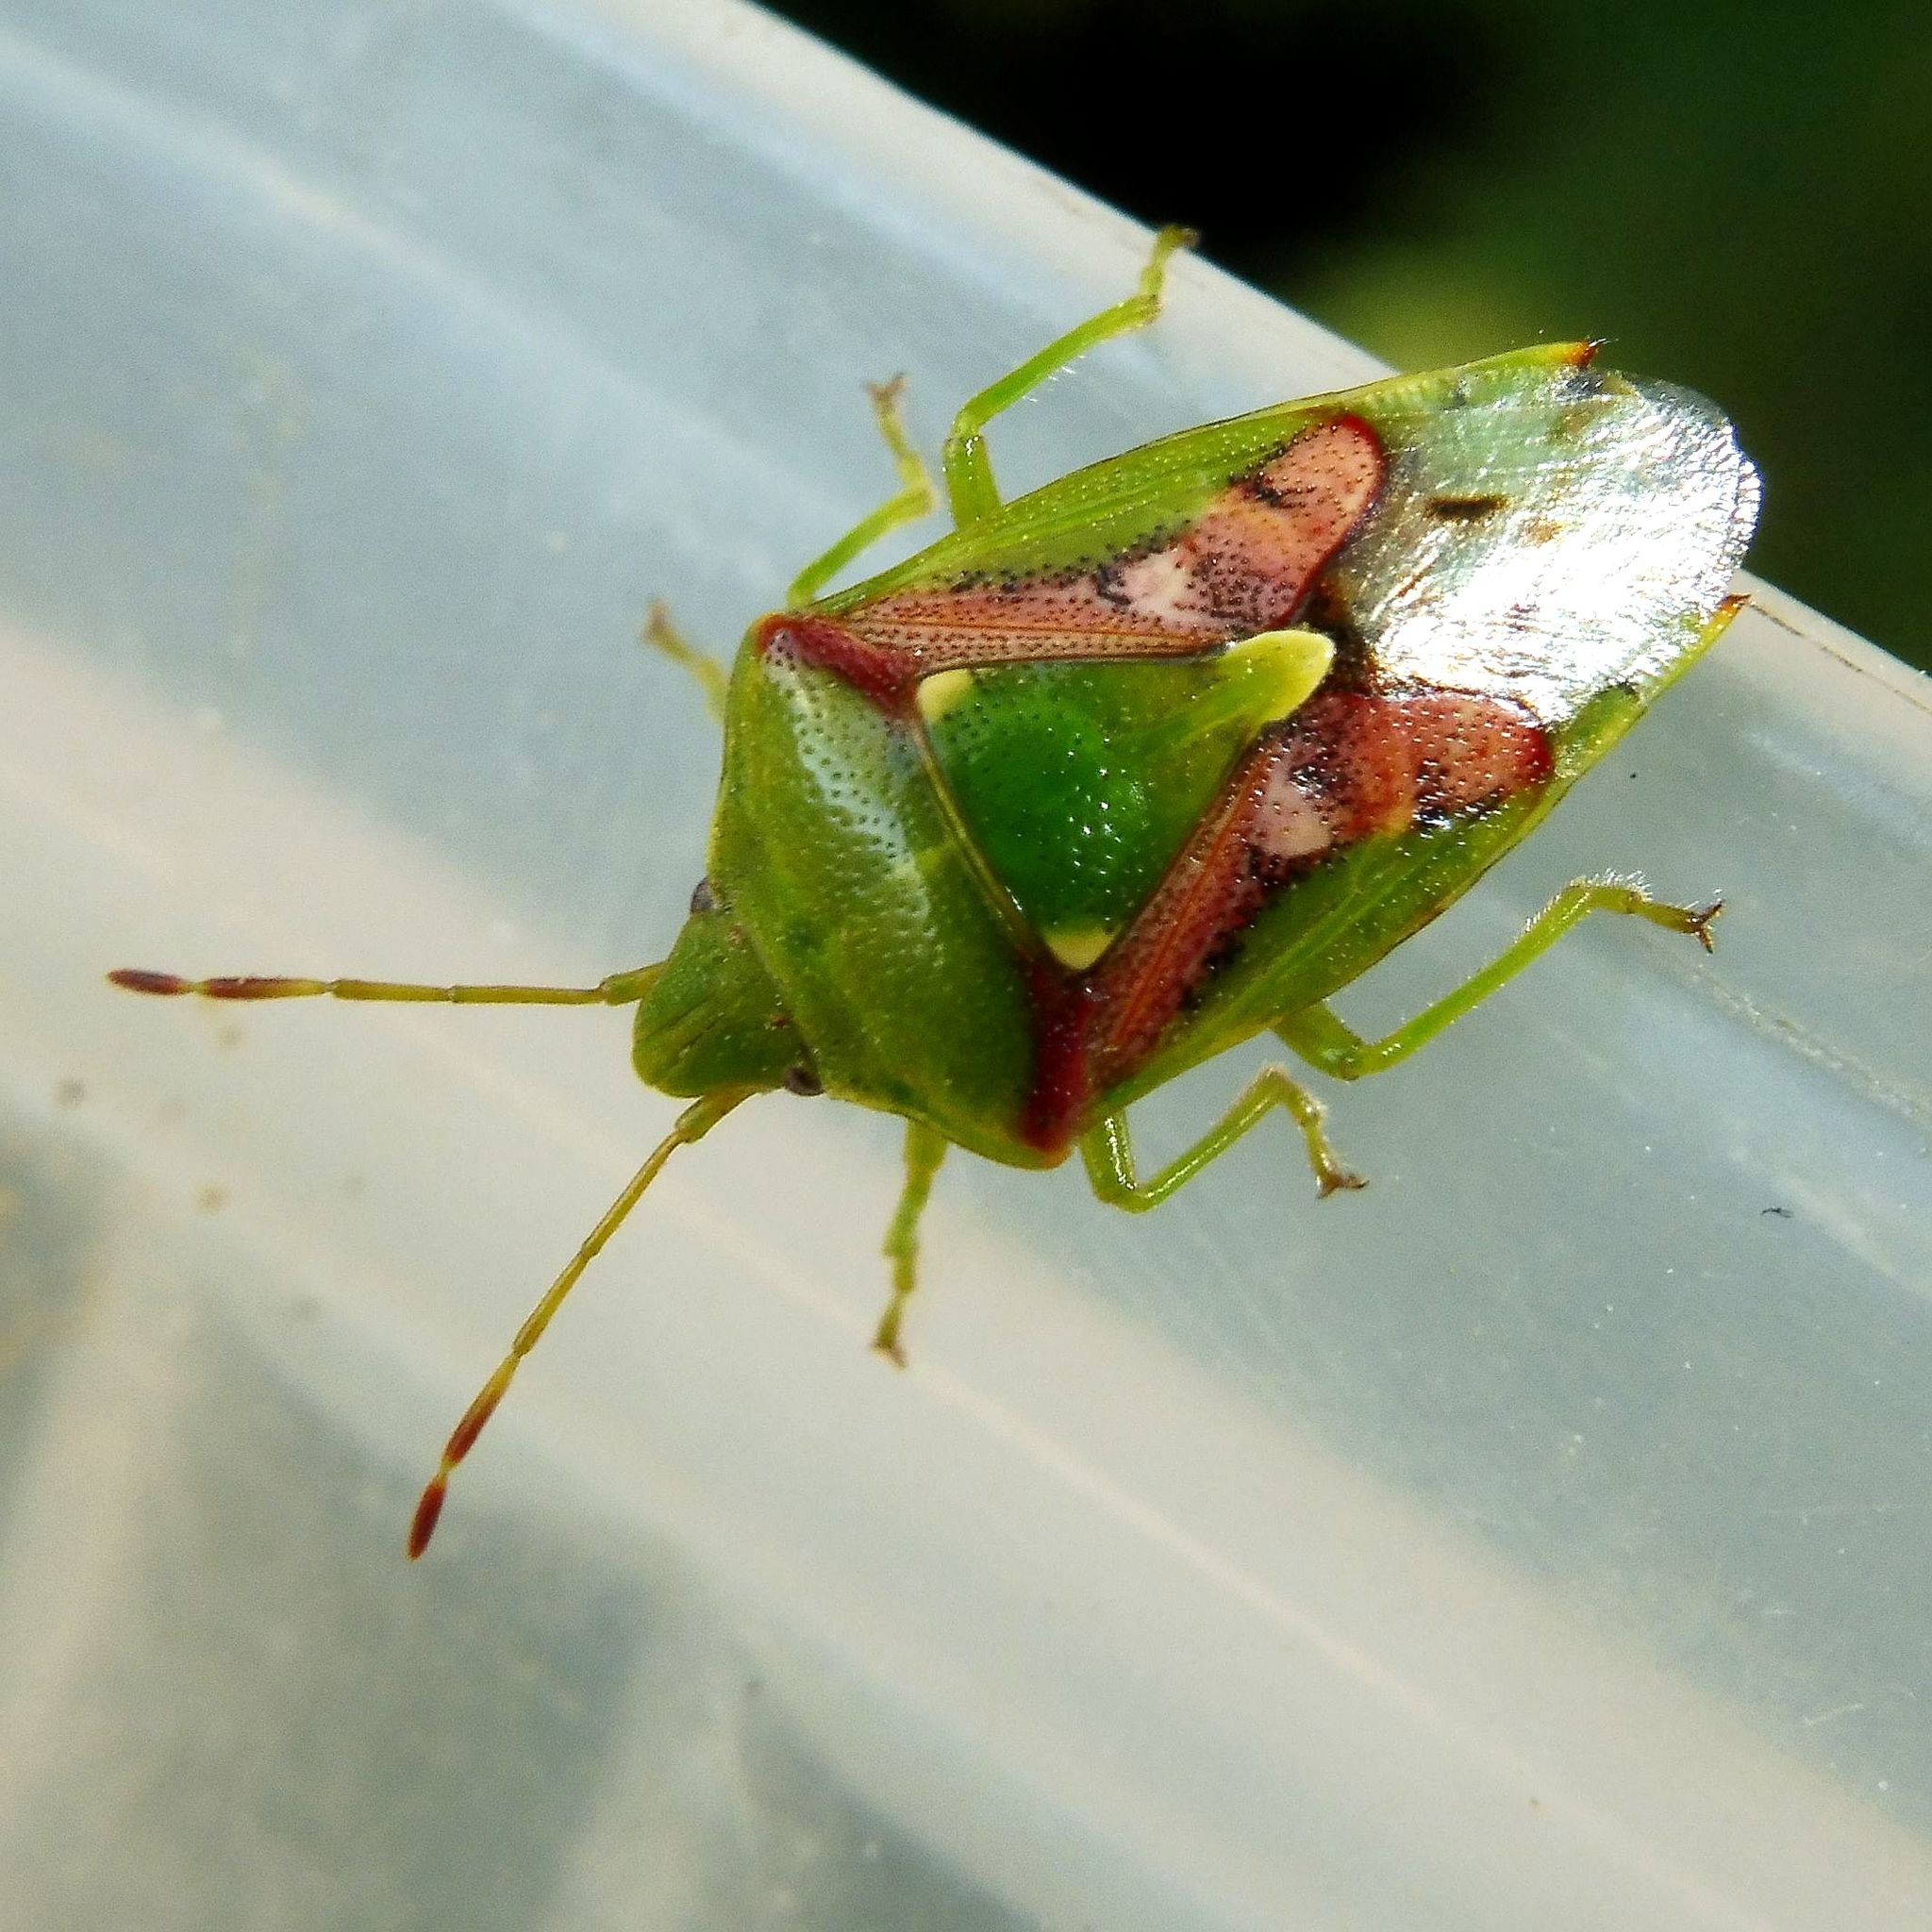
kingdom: Animalia
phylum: Arthropoda
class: Insecta
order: Hemiptera
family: Acanthosomatidae
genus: Cyphostethus
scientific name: Cyphostethus tristriatus
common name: Juniper shieldbug
